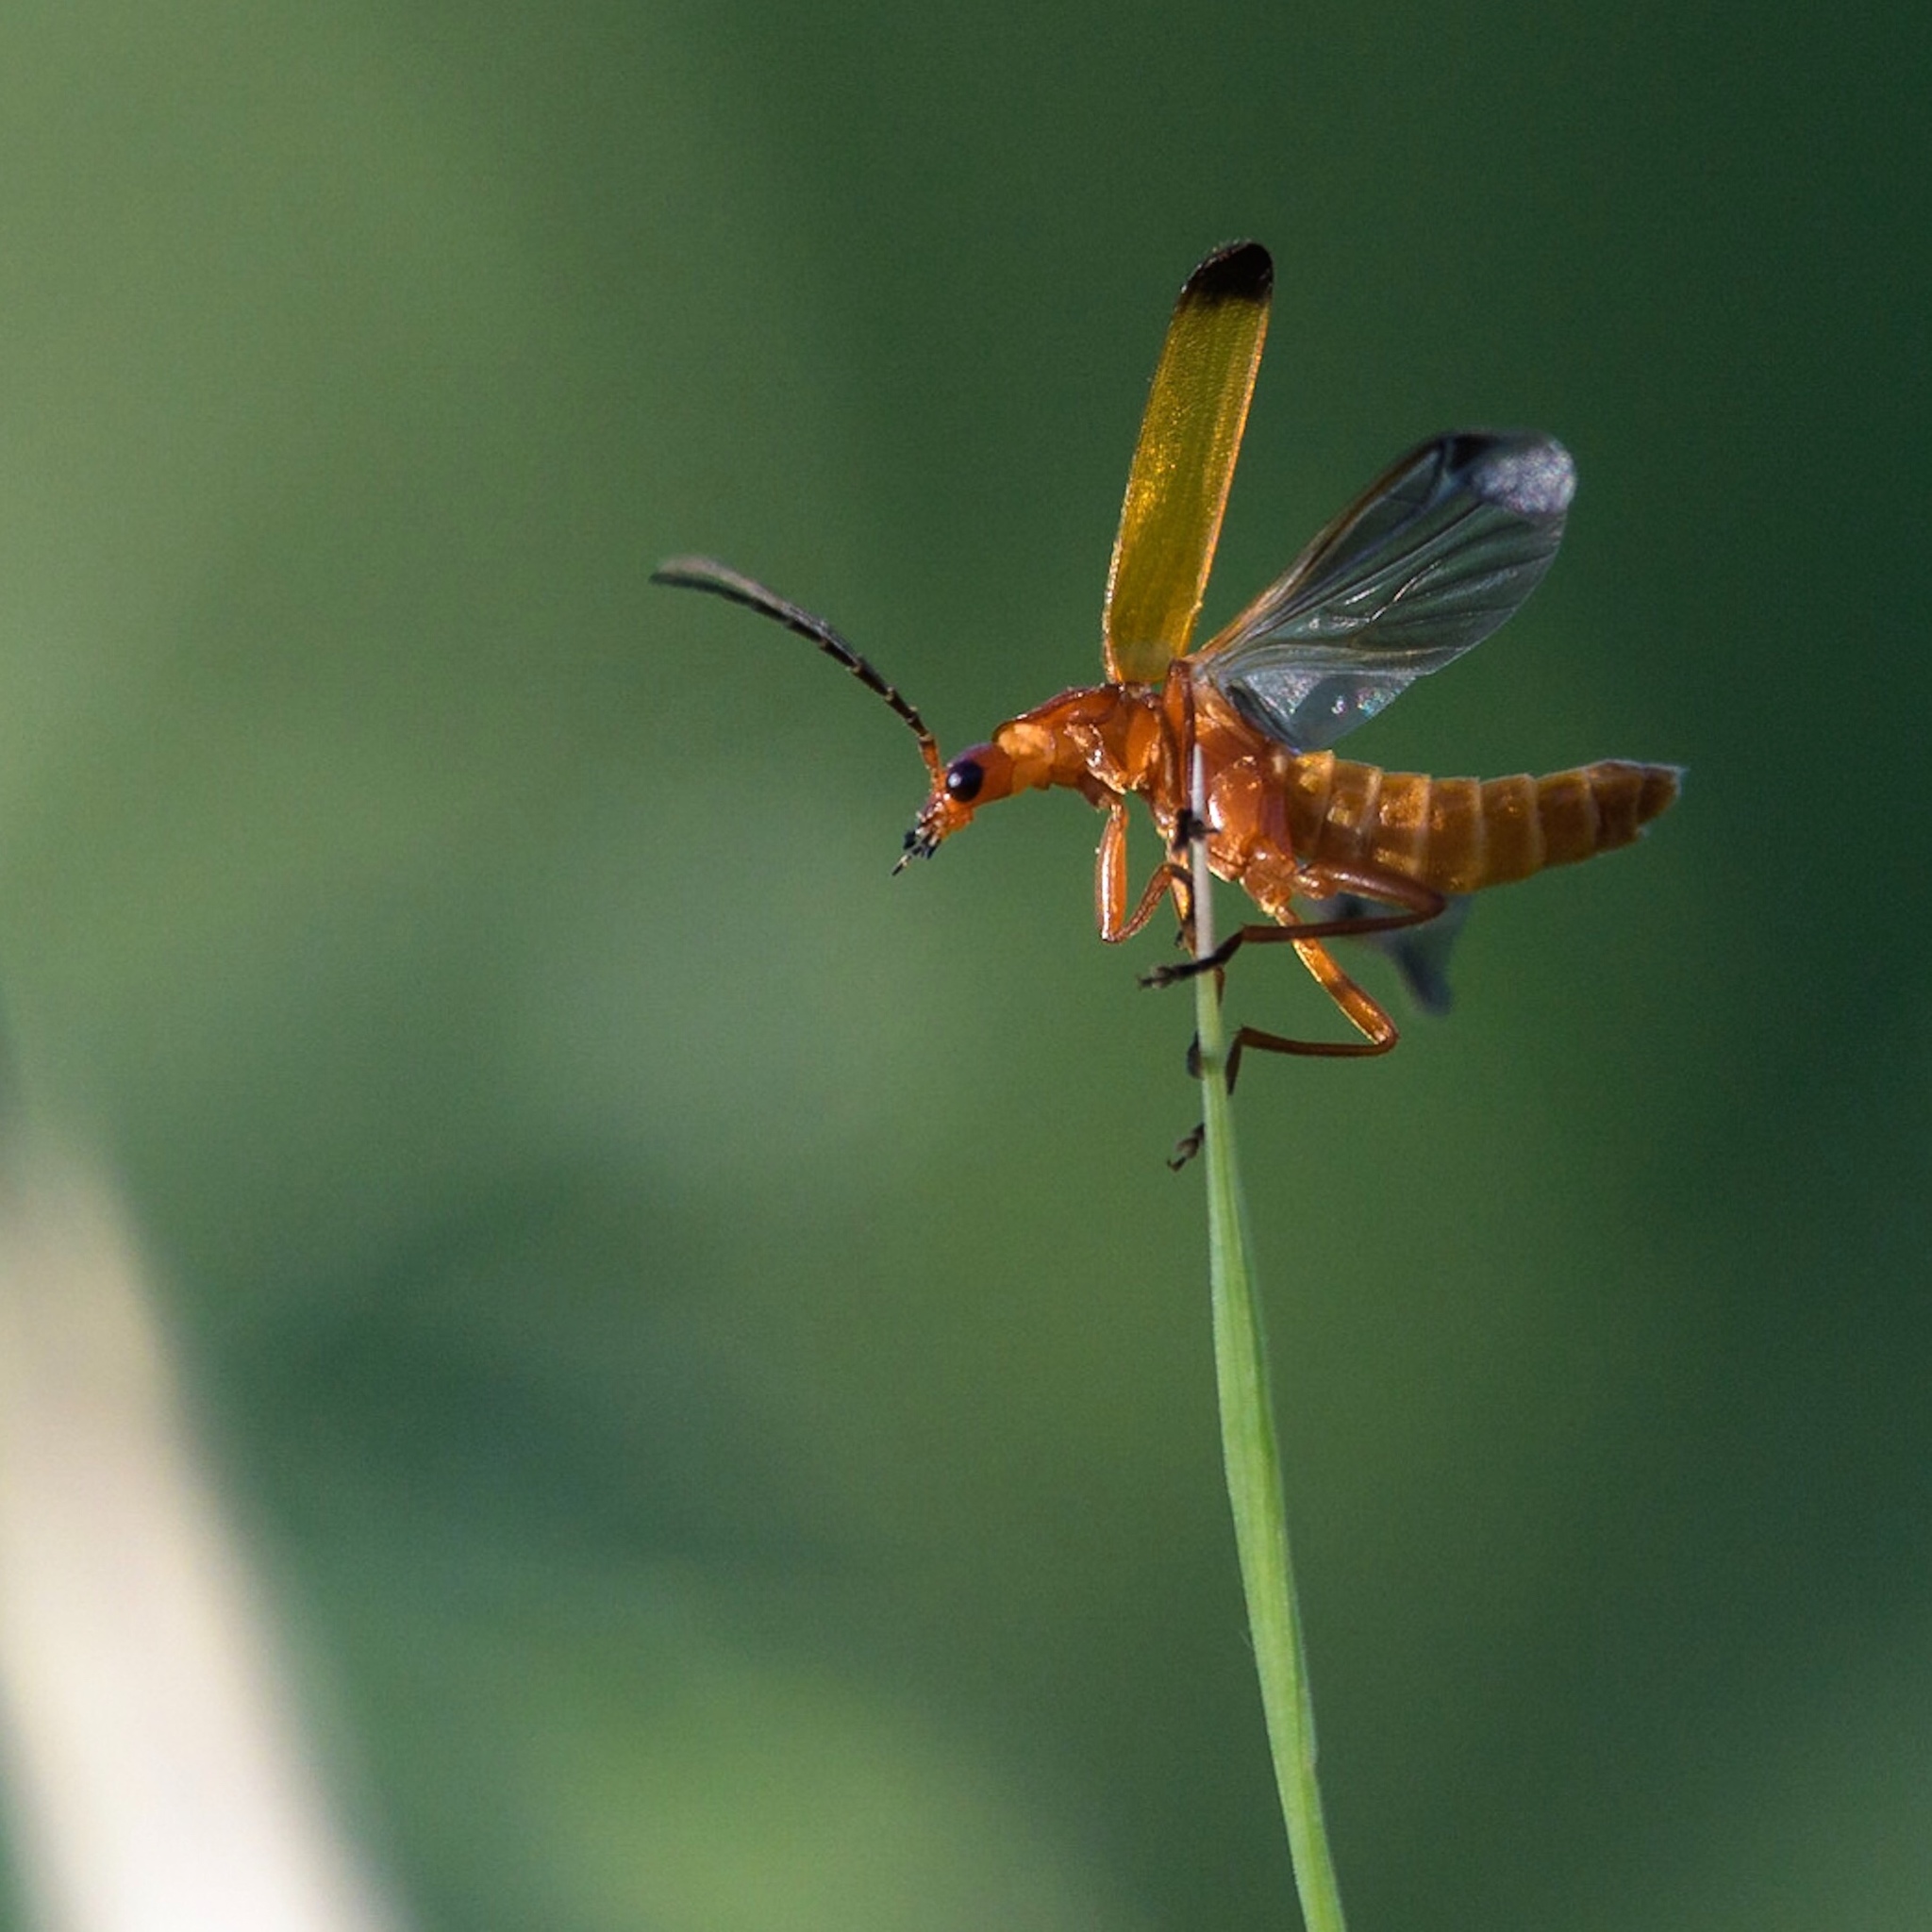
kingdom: Animalia
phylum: Arthropoda
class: Insecta
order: Coleoptera
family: Cantharidae
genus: Rhagonycha
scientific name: Rhagonycha fulva
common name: Common red soldier beetle
